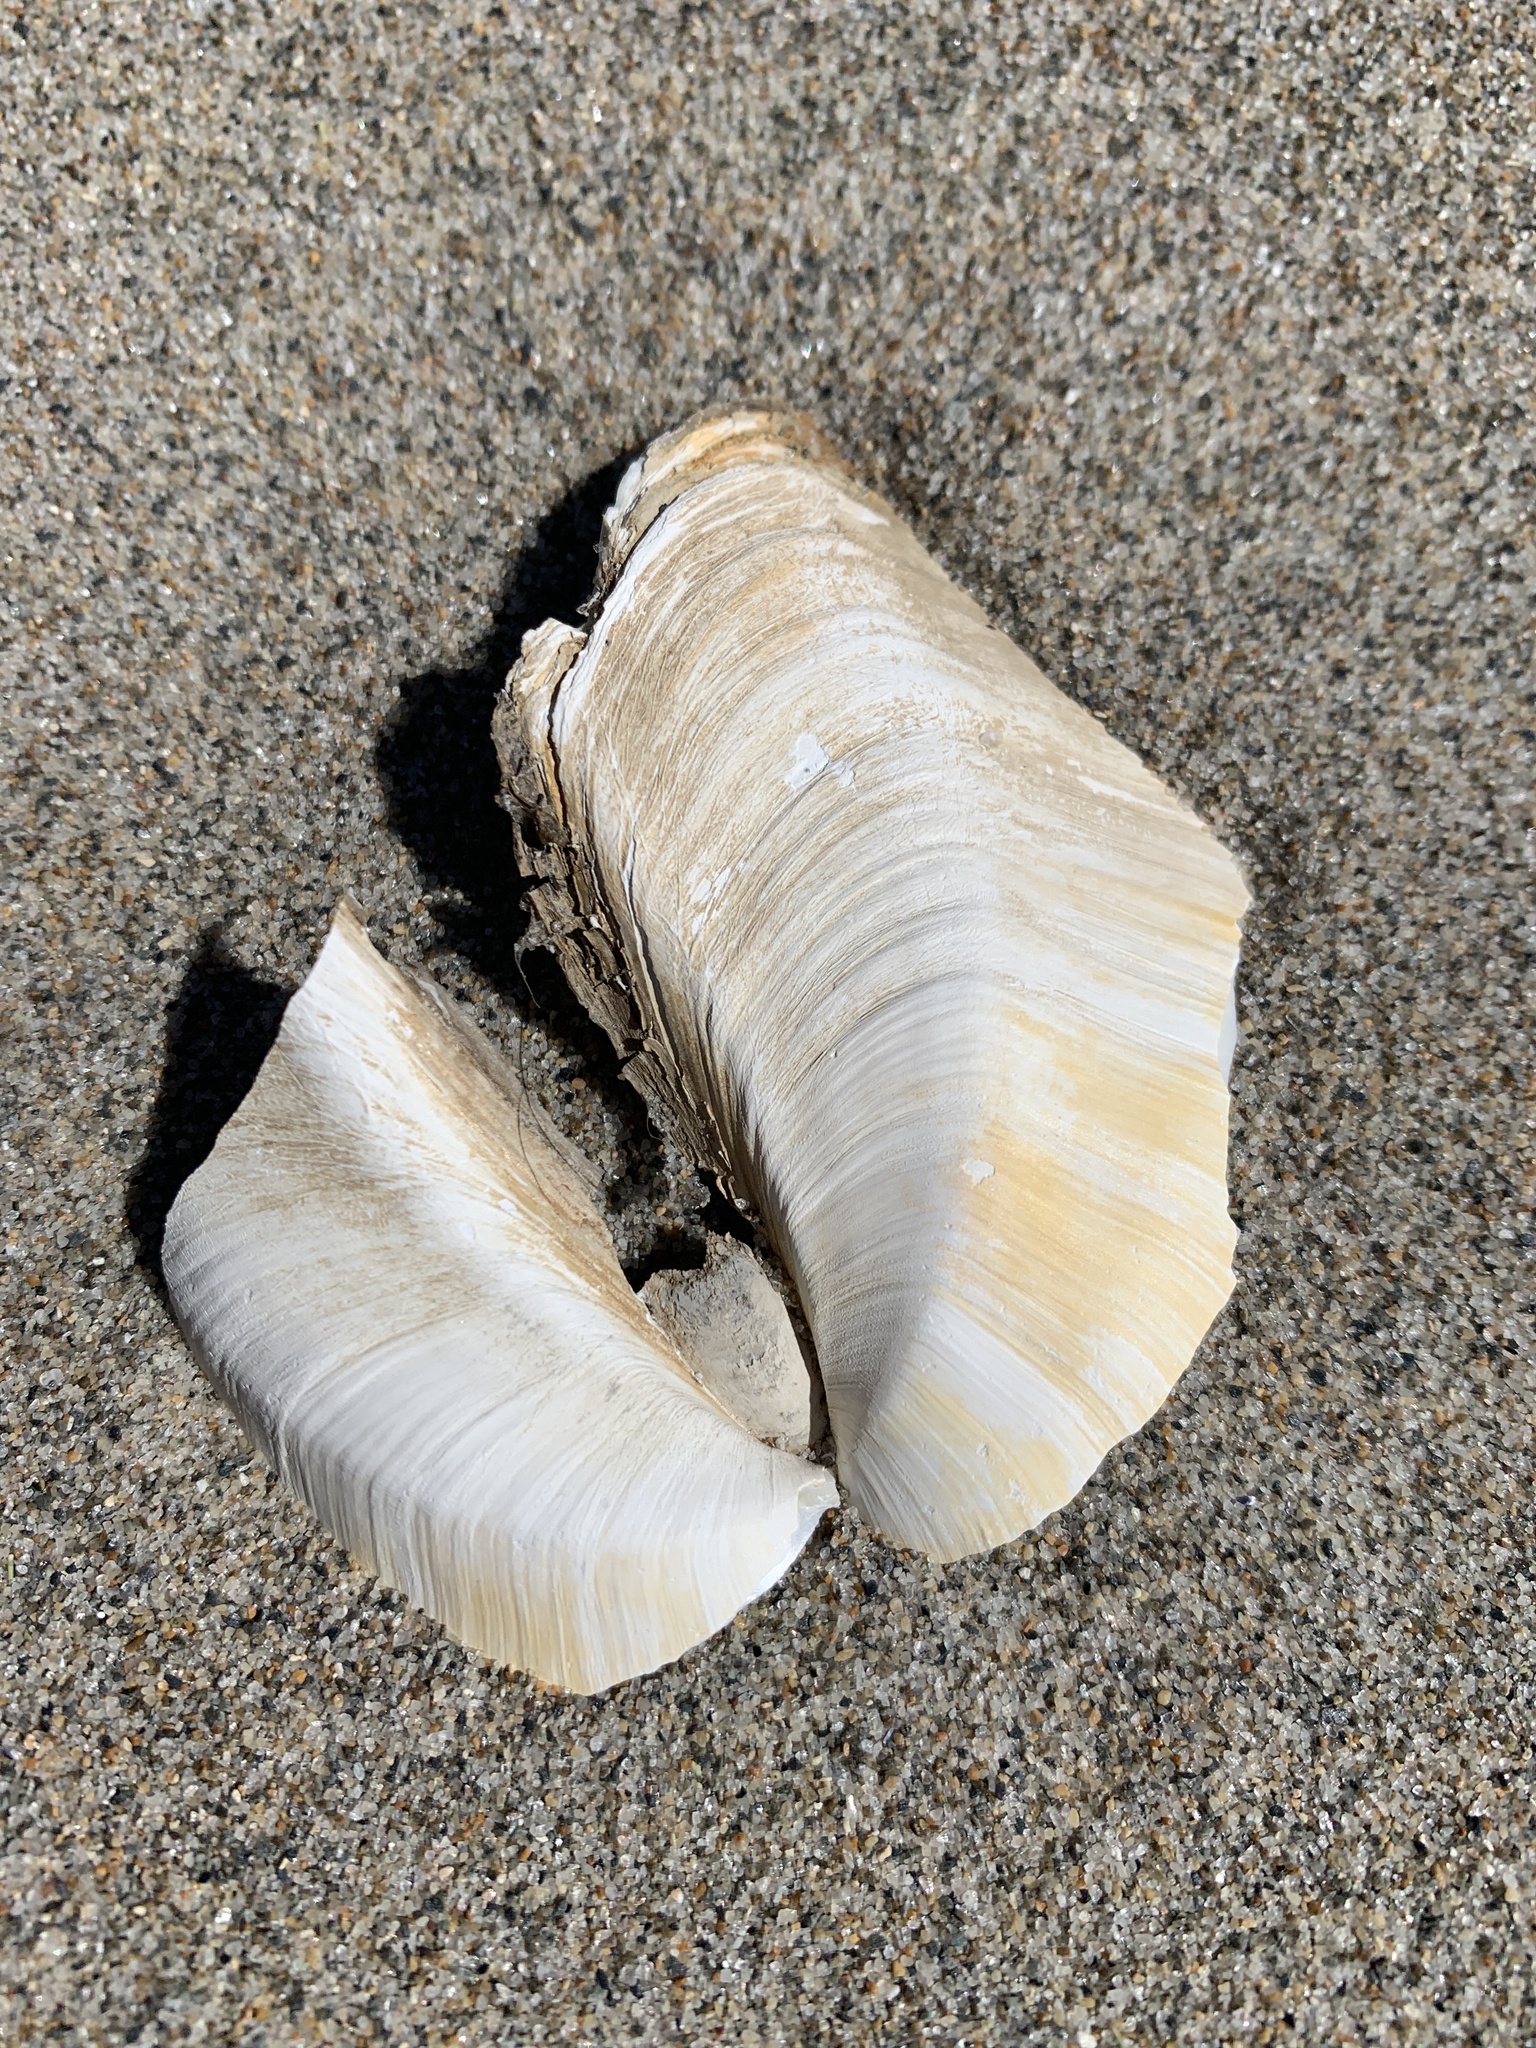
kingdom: Animalia
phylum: Mollusca
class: Bivalvia
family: Thraciidae
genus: Thracia
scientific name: Thracia conradi
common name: Conrad thracia
